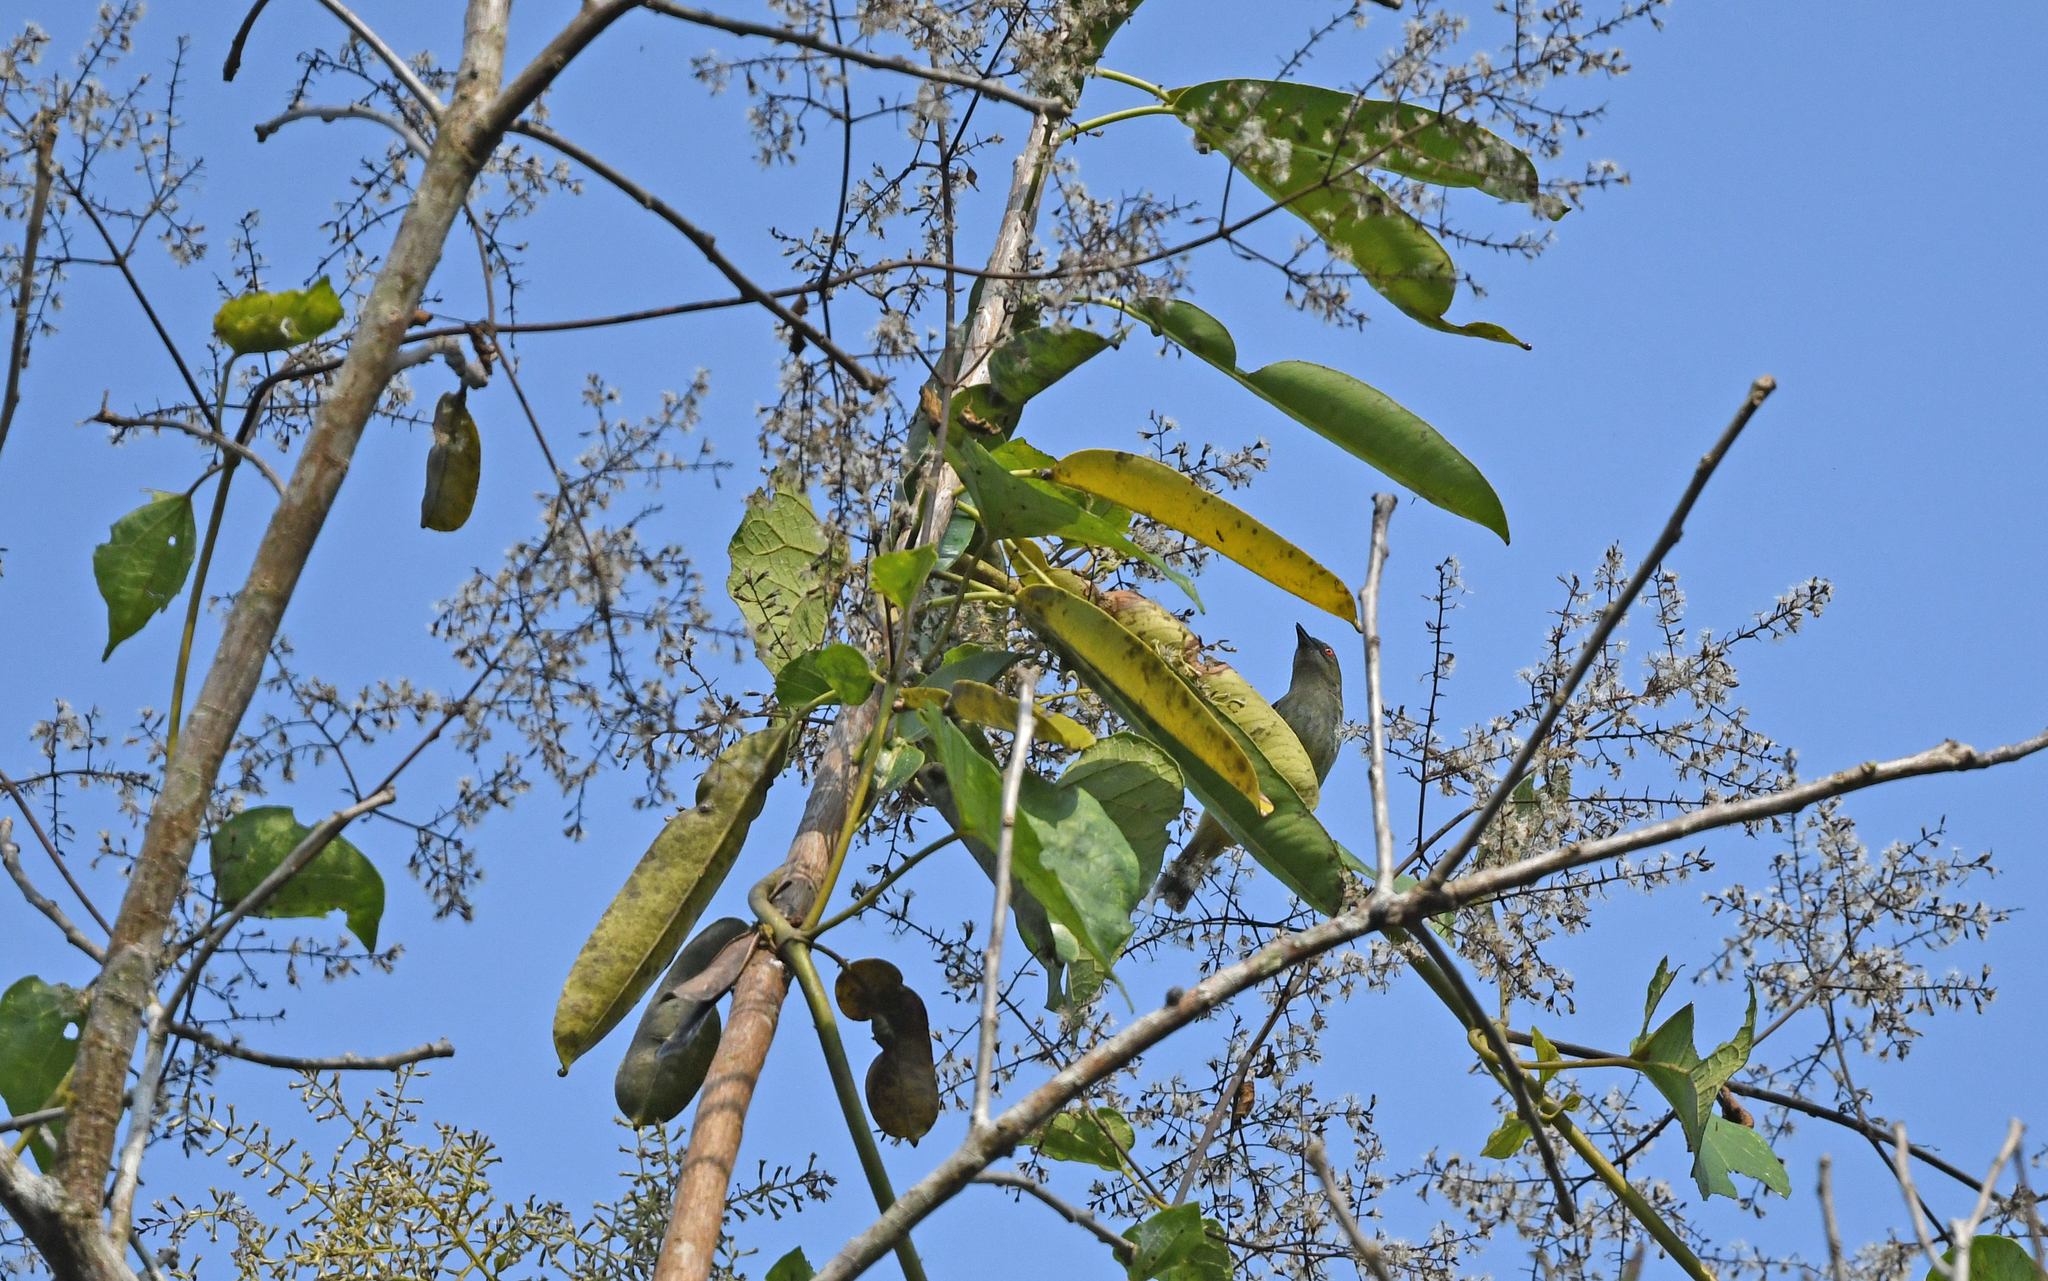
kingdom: Animalia
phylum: Chordata
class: Aves
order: Passeriformes
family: Thraupidae
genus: Dacnis
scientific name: Dacnis flaviventer
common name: Yellow-bellied dacnis
